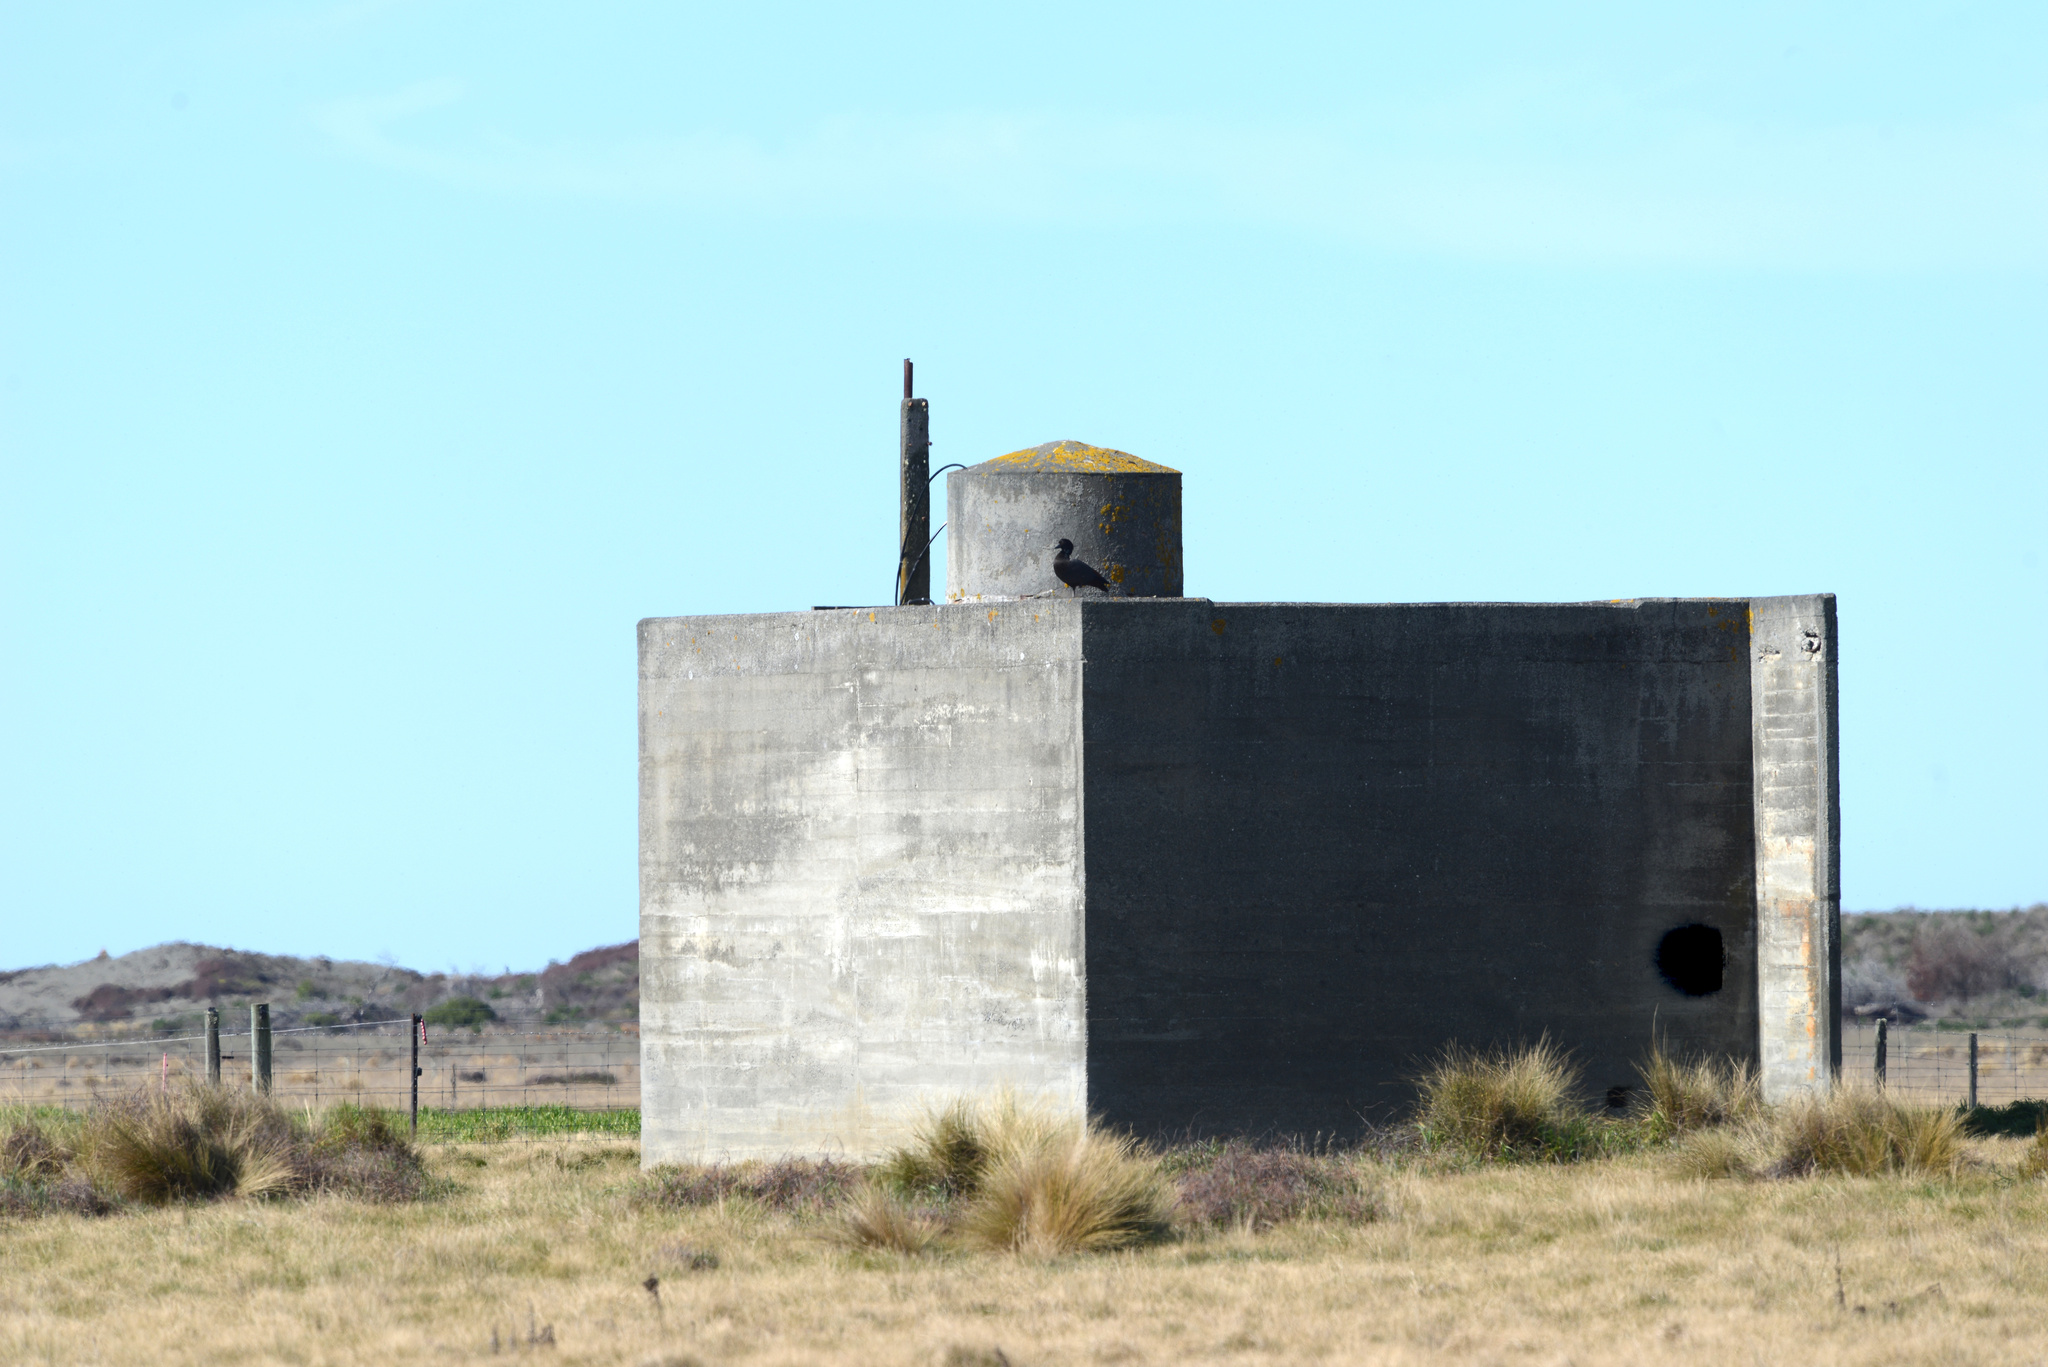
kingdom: Animalia
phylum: Chordata
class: Aves
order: Anseriformes
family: Anatidae
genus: Tadorna
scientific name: Tadorna variegata
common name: Paradise shelduck
